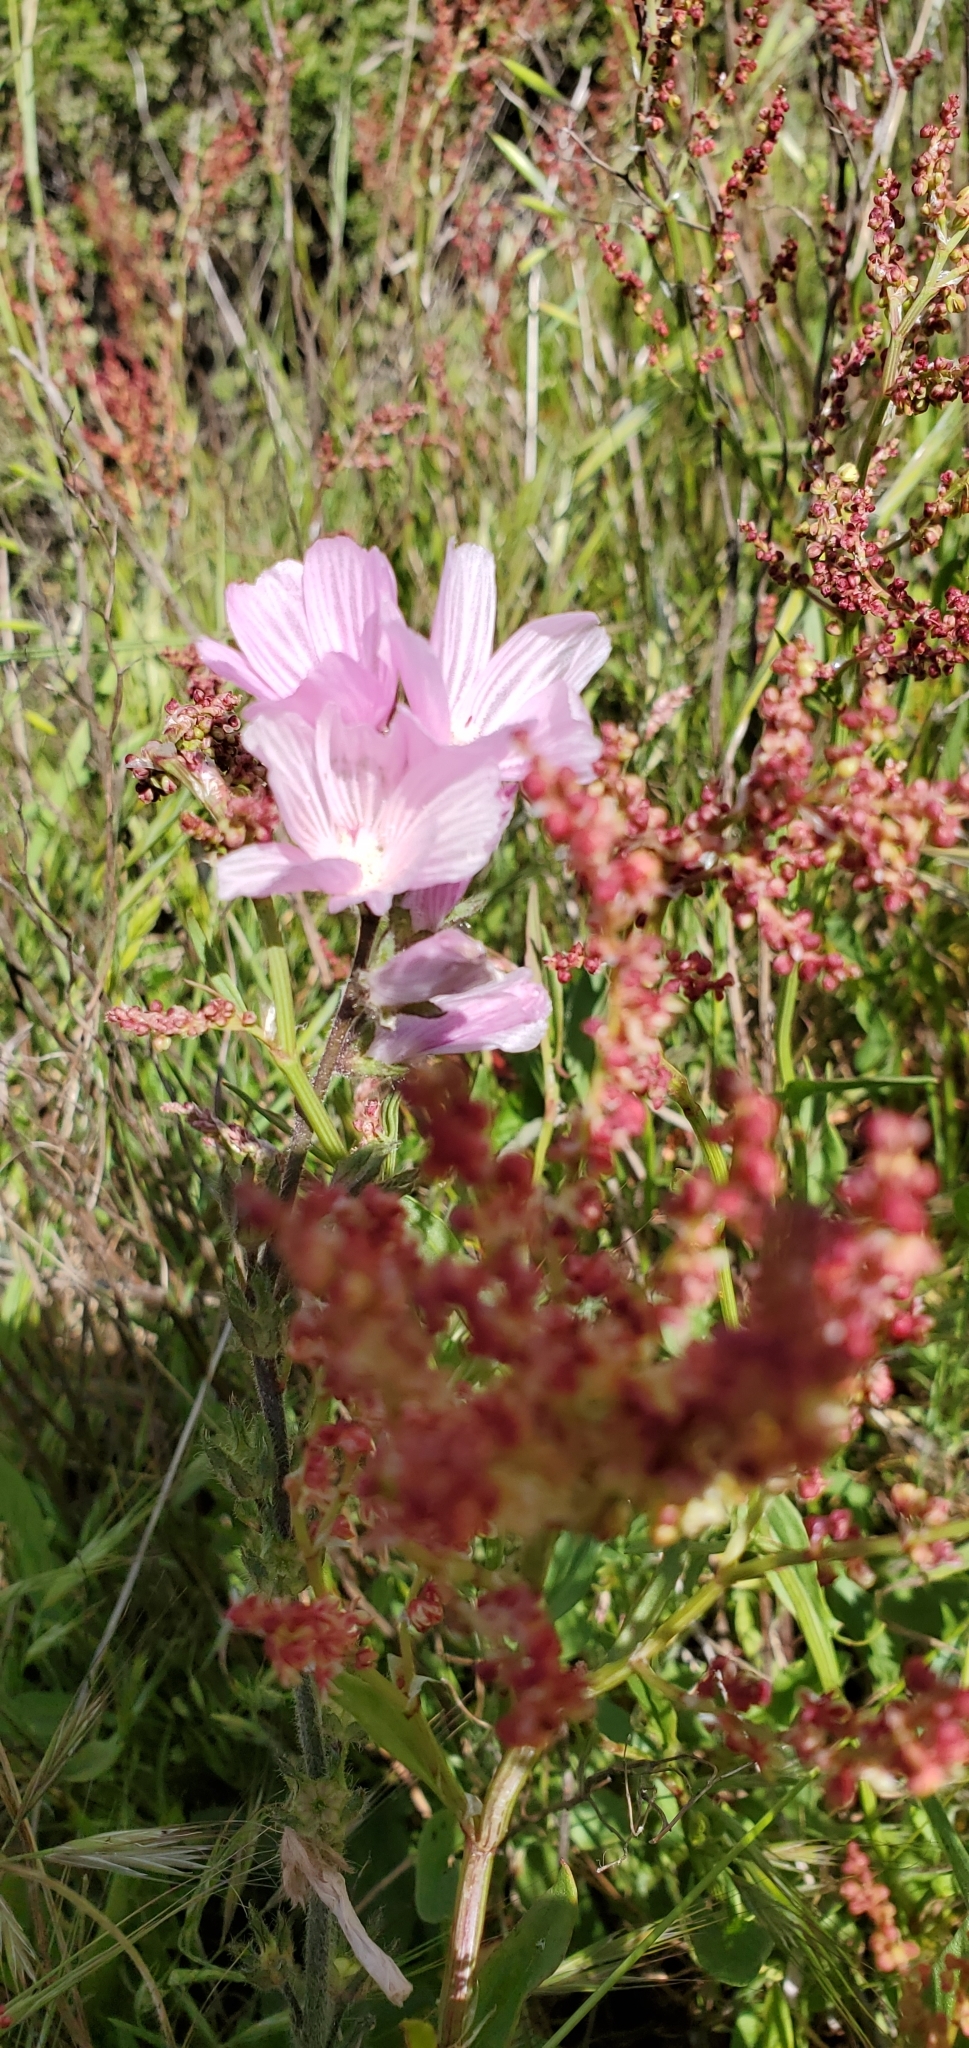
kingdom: Plantae
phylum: Tracheophyta
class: Magnoliopsida
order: Malvales
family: Malvaceae
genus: Sidalcea
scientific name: Sidalcea malviflora
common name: Greek mallow
